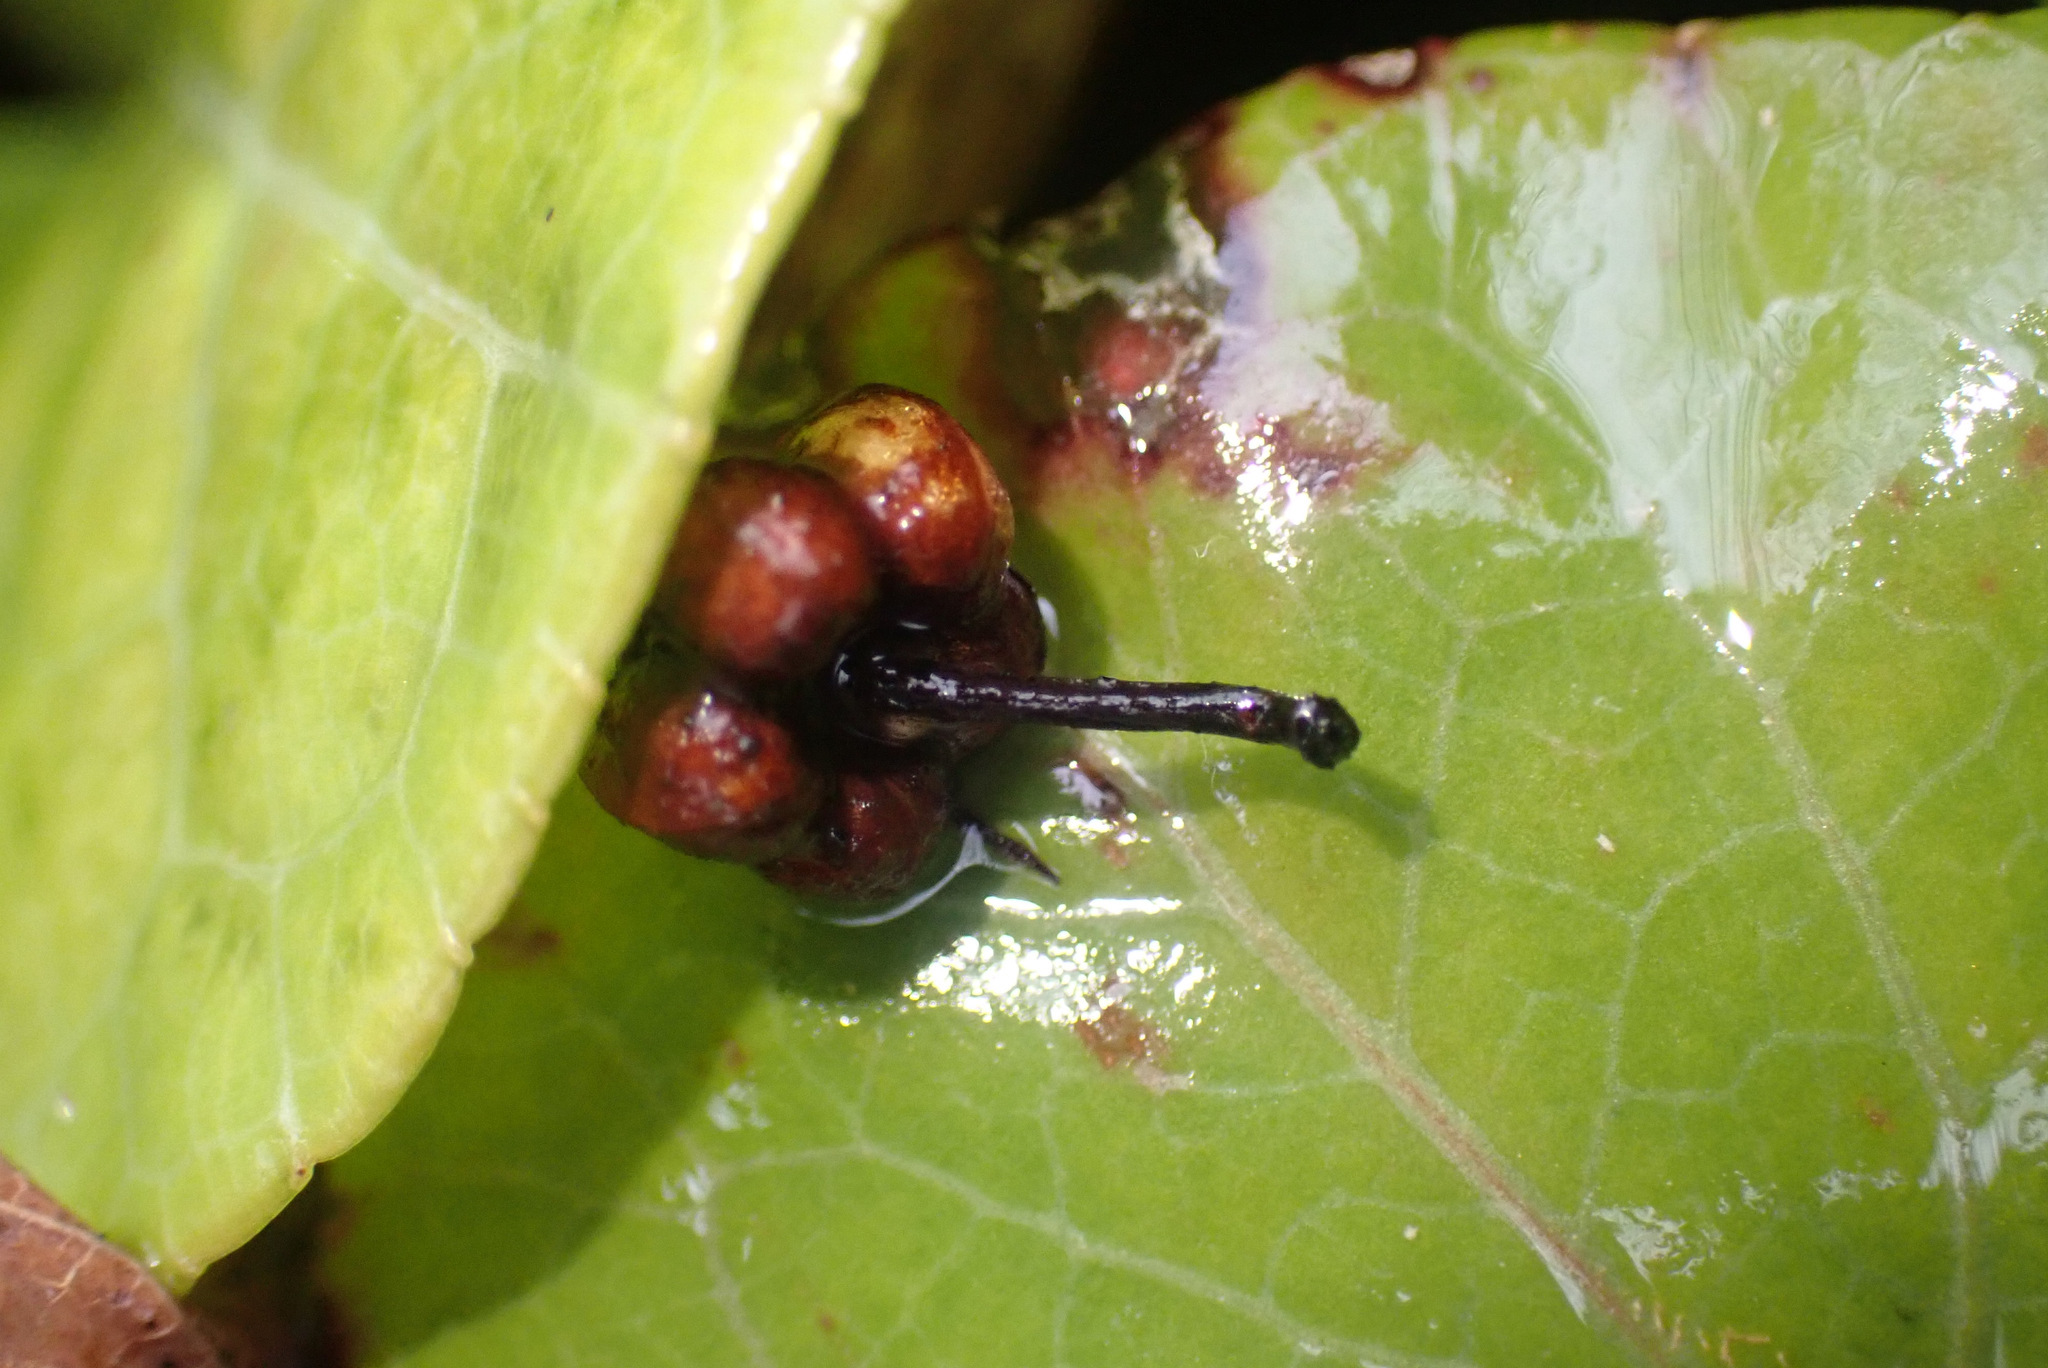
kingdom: Plantae
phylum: Tracheophyta
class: Magnoliopsida
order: Ericales
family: Ericaceae
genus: Pyrola
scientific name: Pyrola rotundifolia
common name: Round-leaved wintergreen
